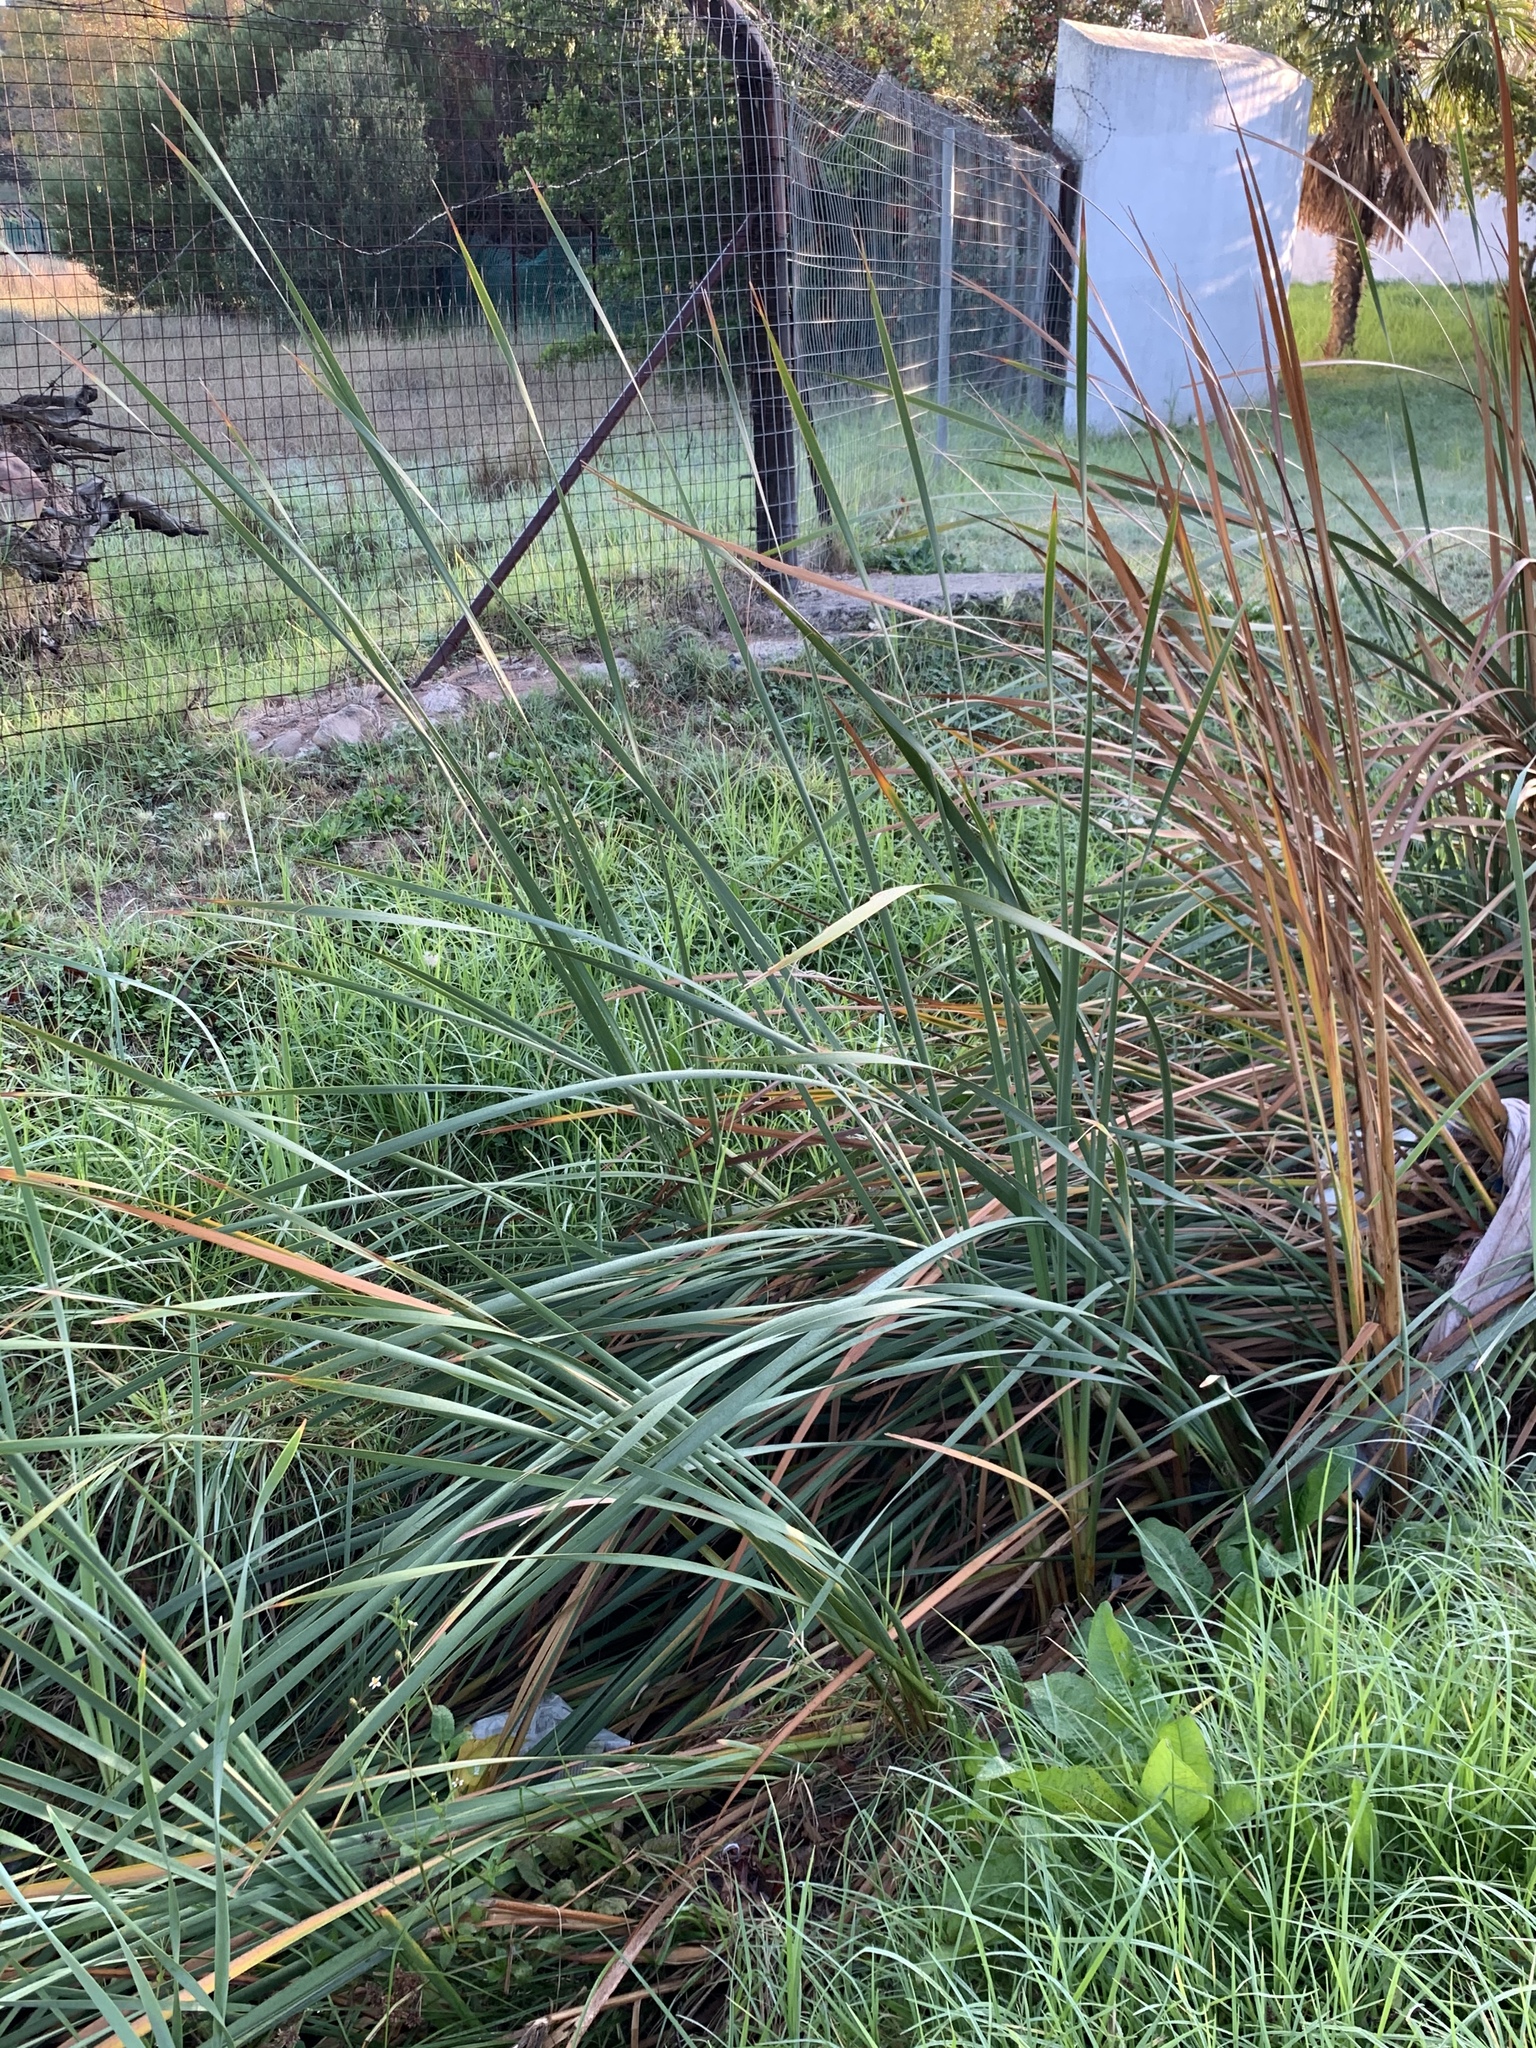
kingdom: Plantae
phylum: Tracheophyta
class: Liliopsida
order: Poales
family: Typhaceae
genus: Typha
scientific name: Typha capensis
